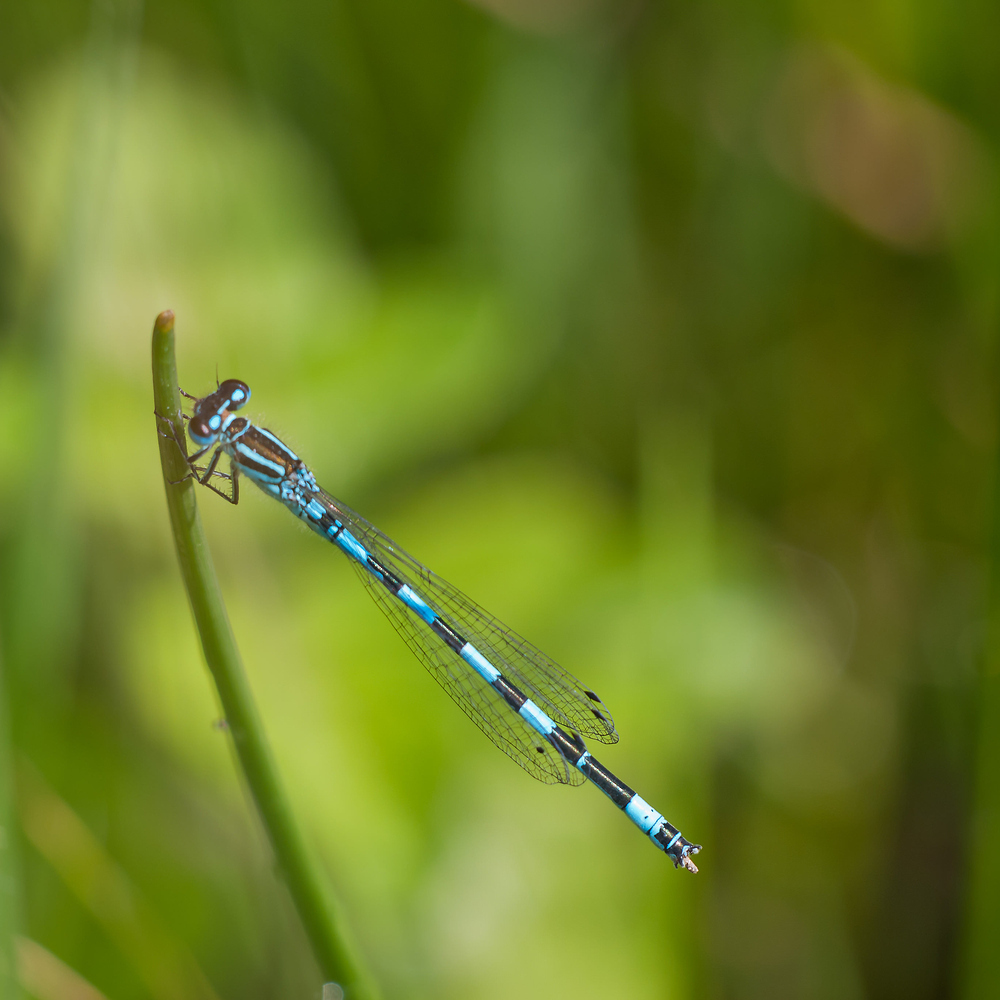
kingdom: Animalia
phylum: Arthropoda
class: Insecta
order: Odonata
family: Coenagrionidae
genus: Coenagrion
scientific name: Coenagrion mercuriale
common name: Southern damselfly
